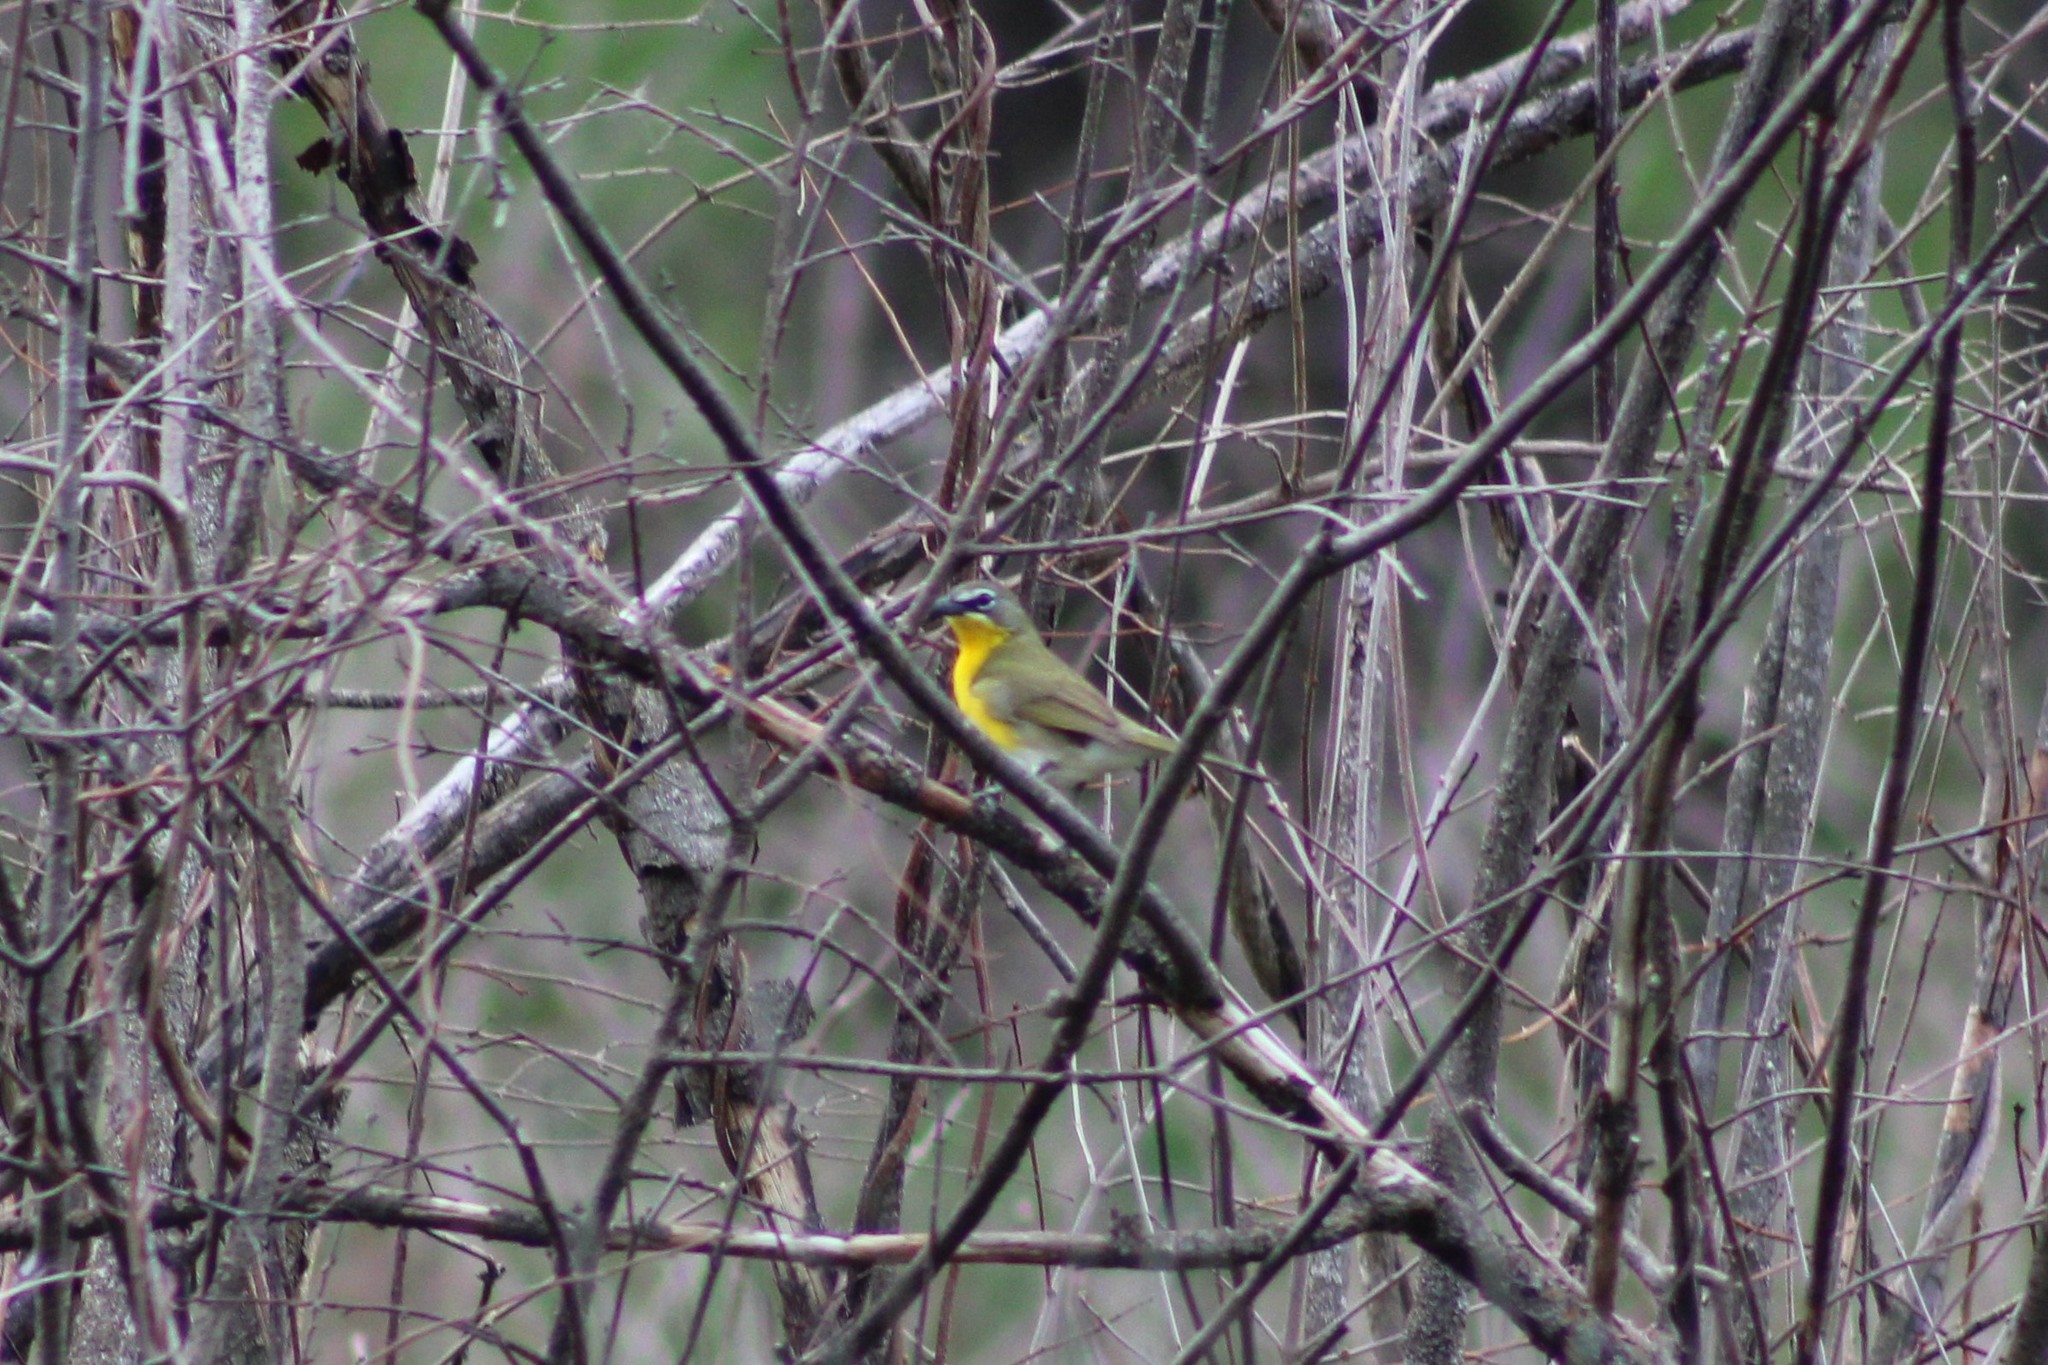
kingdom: Animalia
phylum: Chordata
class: Aves
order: Passeriformes
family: Parulidae
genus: Icteria
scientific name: Icteria virens
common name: Yellow-breasted chat
